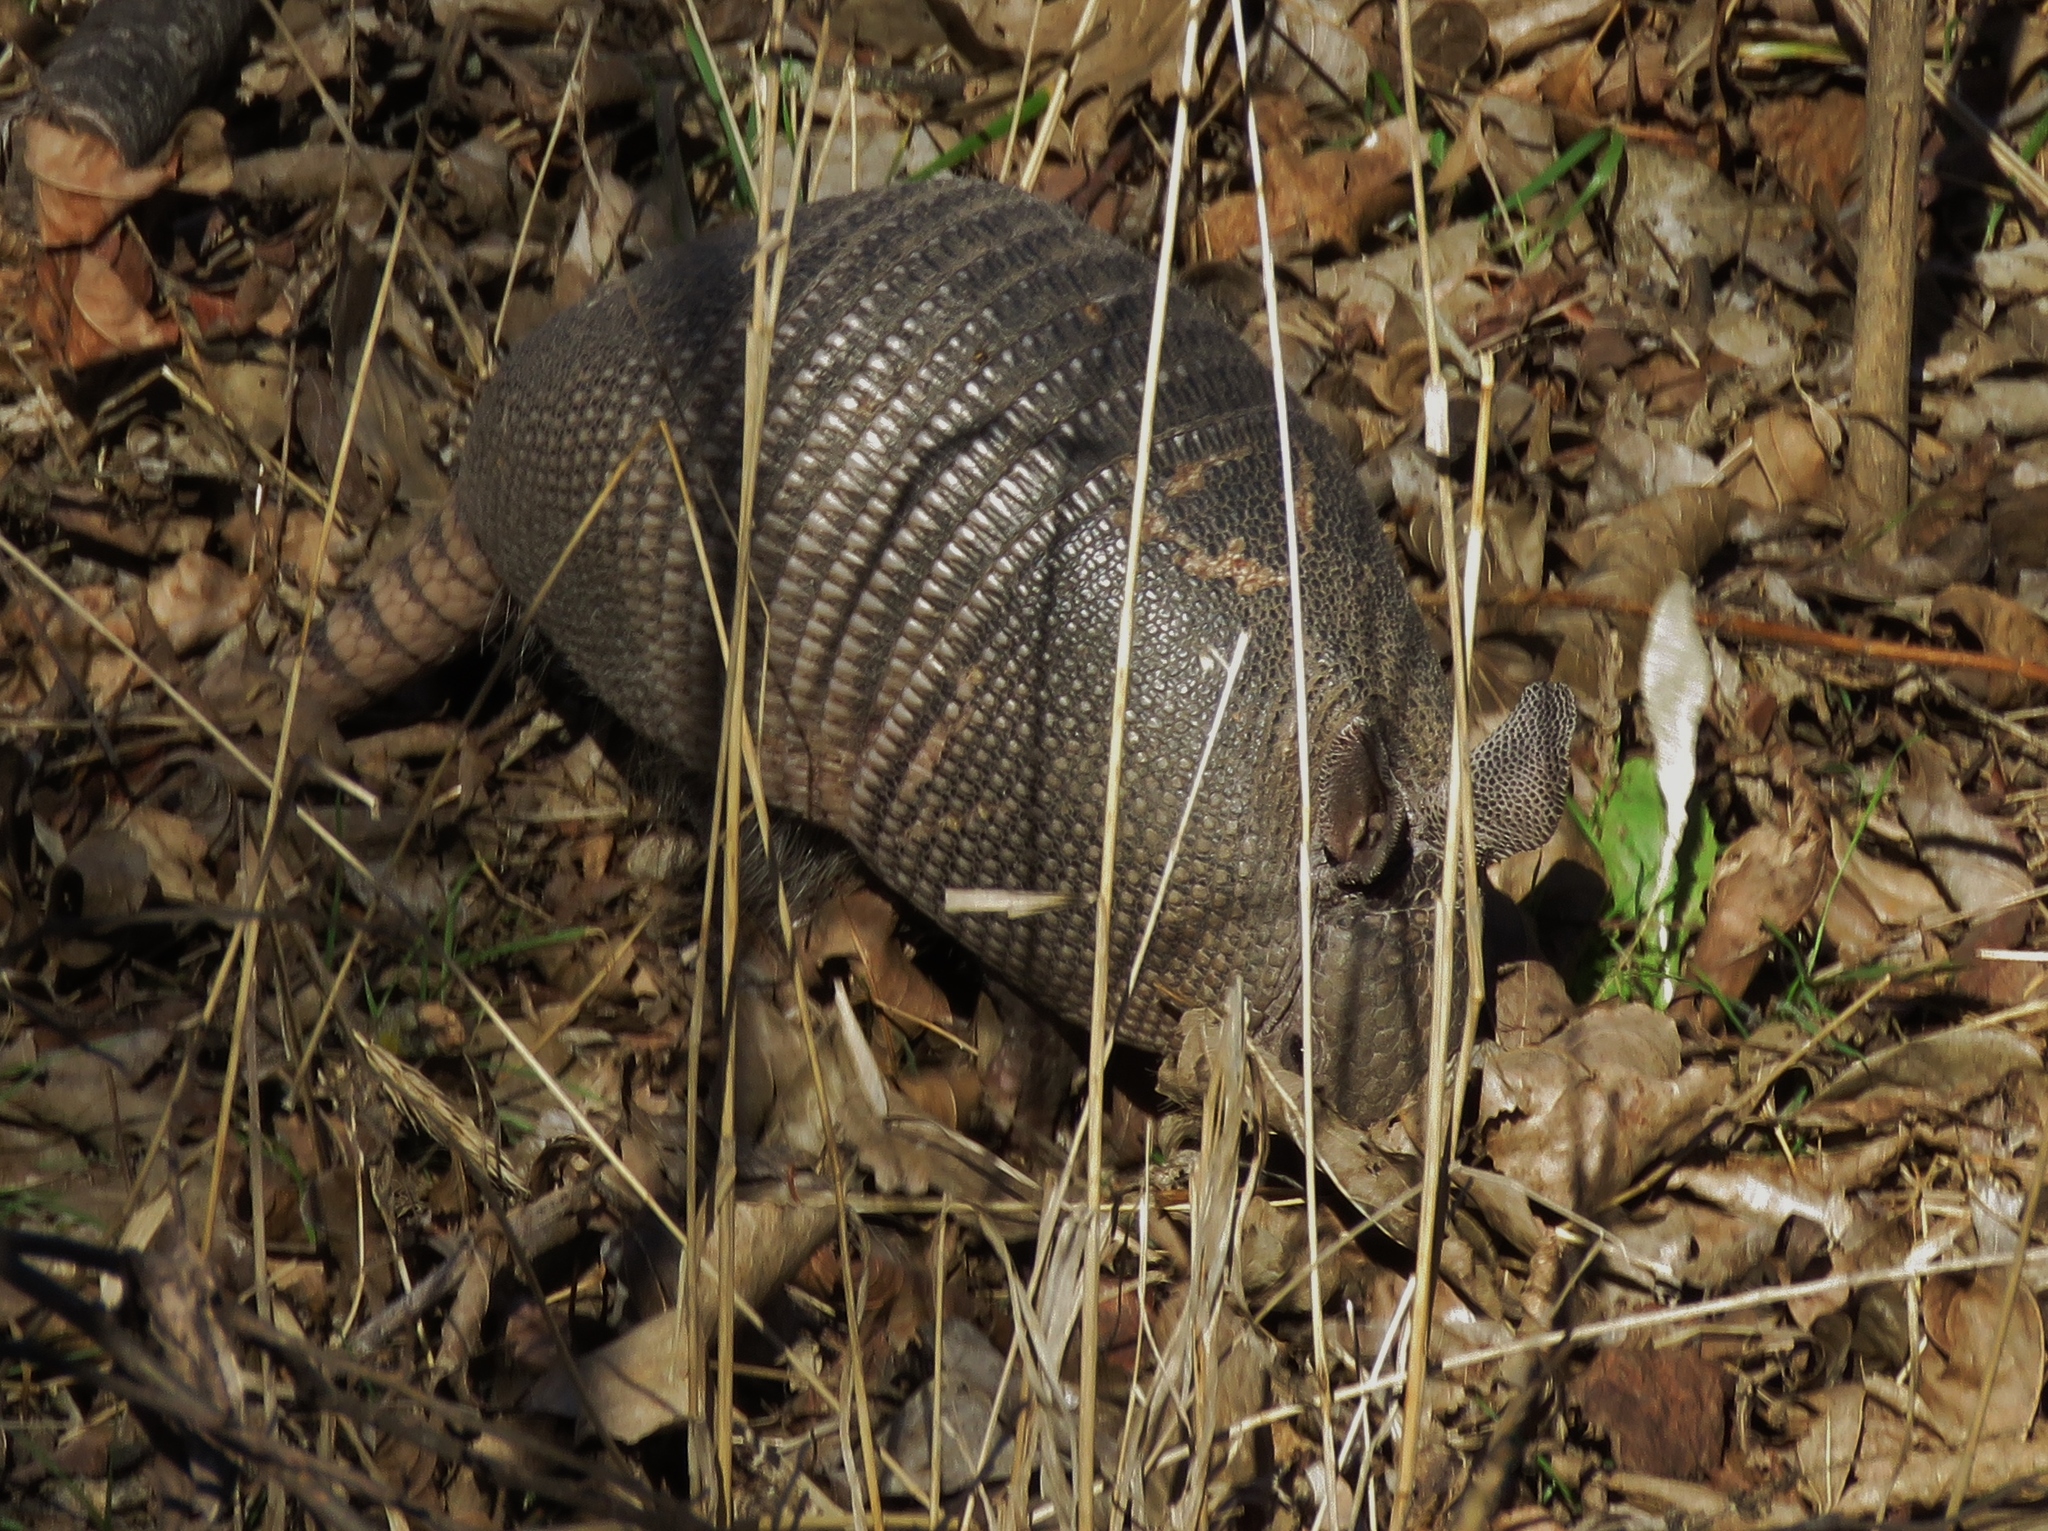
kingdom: Animalia
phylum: Chordata
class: Mammalia
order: Cingulata
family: Dasypodidae
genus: Dasypus
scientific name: Dasypus novemcinctus
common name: Nine-banded armadillo
